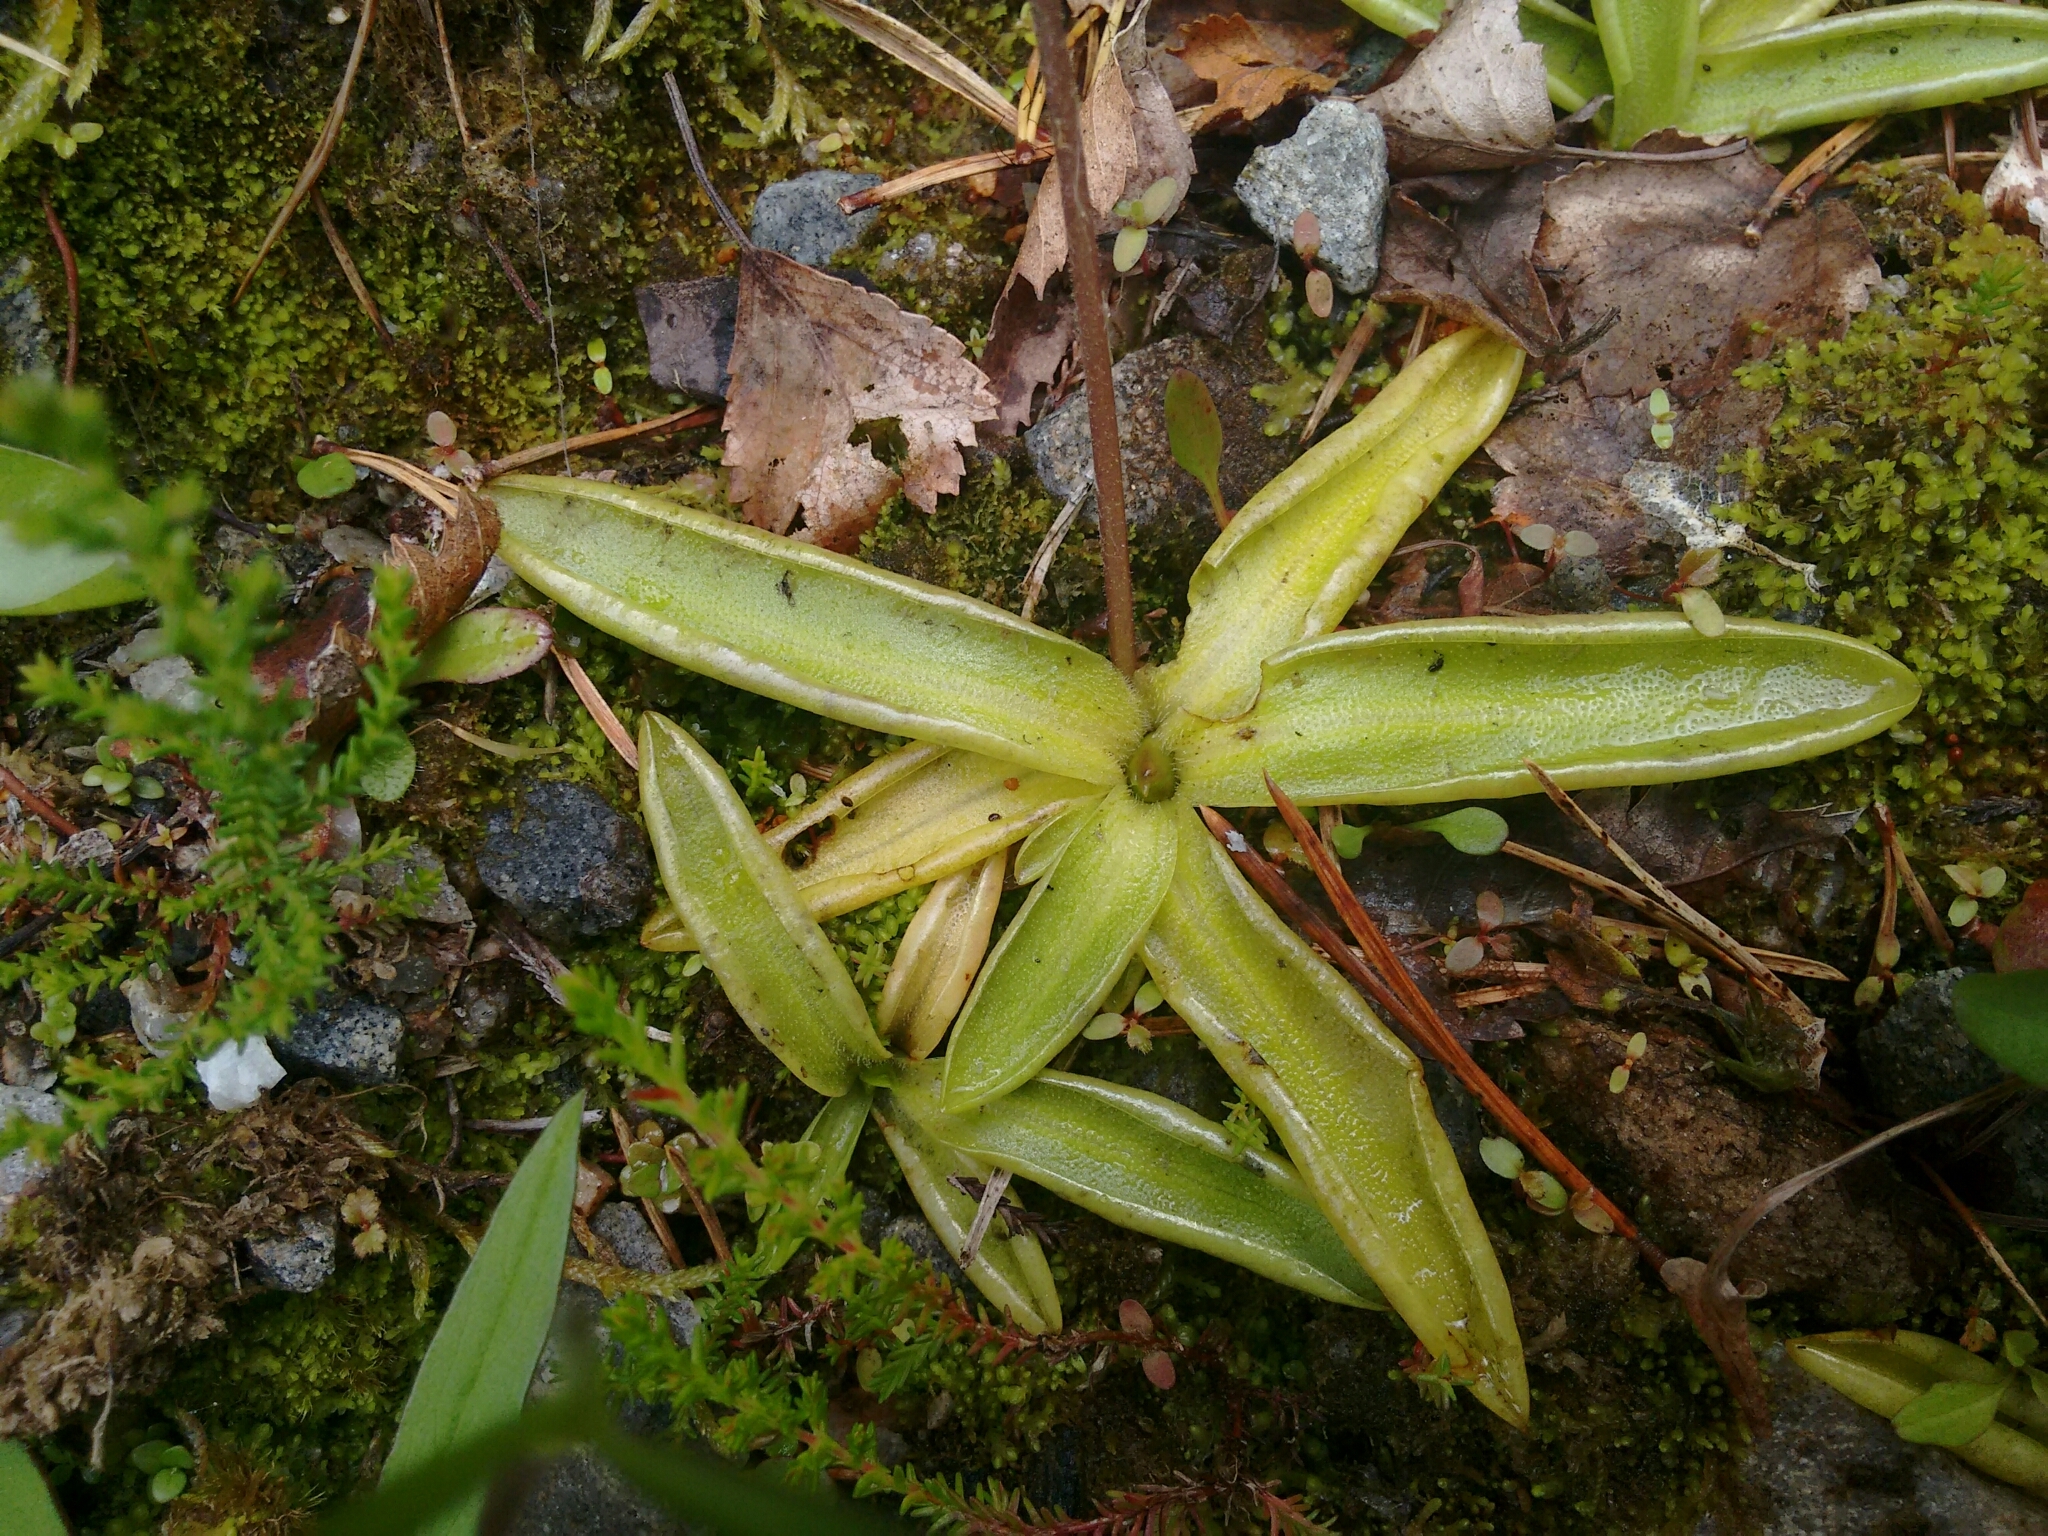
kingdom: Plantae
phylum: Tracheophyta
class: Magnoliopsida
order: Lamiales
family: Lentibulariaceae
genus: Pinguicula
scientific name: Pinguicula vulgaris
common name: Common butterwort
